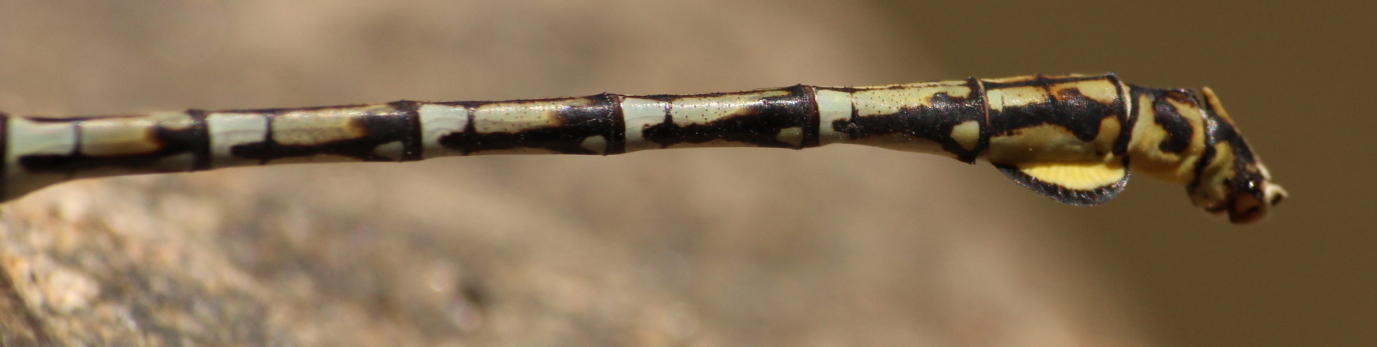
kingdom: Animalia
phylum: Arthropoda
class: Insecta
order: Odonata
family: Gomphidae
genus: Ceratogomphus
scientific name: Ceratogomphus pictus
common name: Common thorntail
